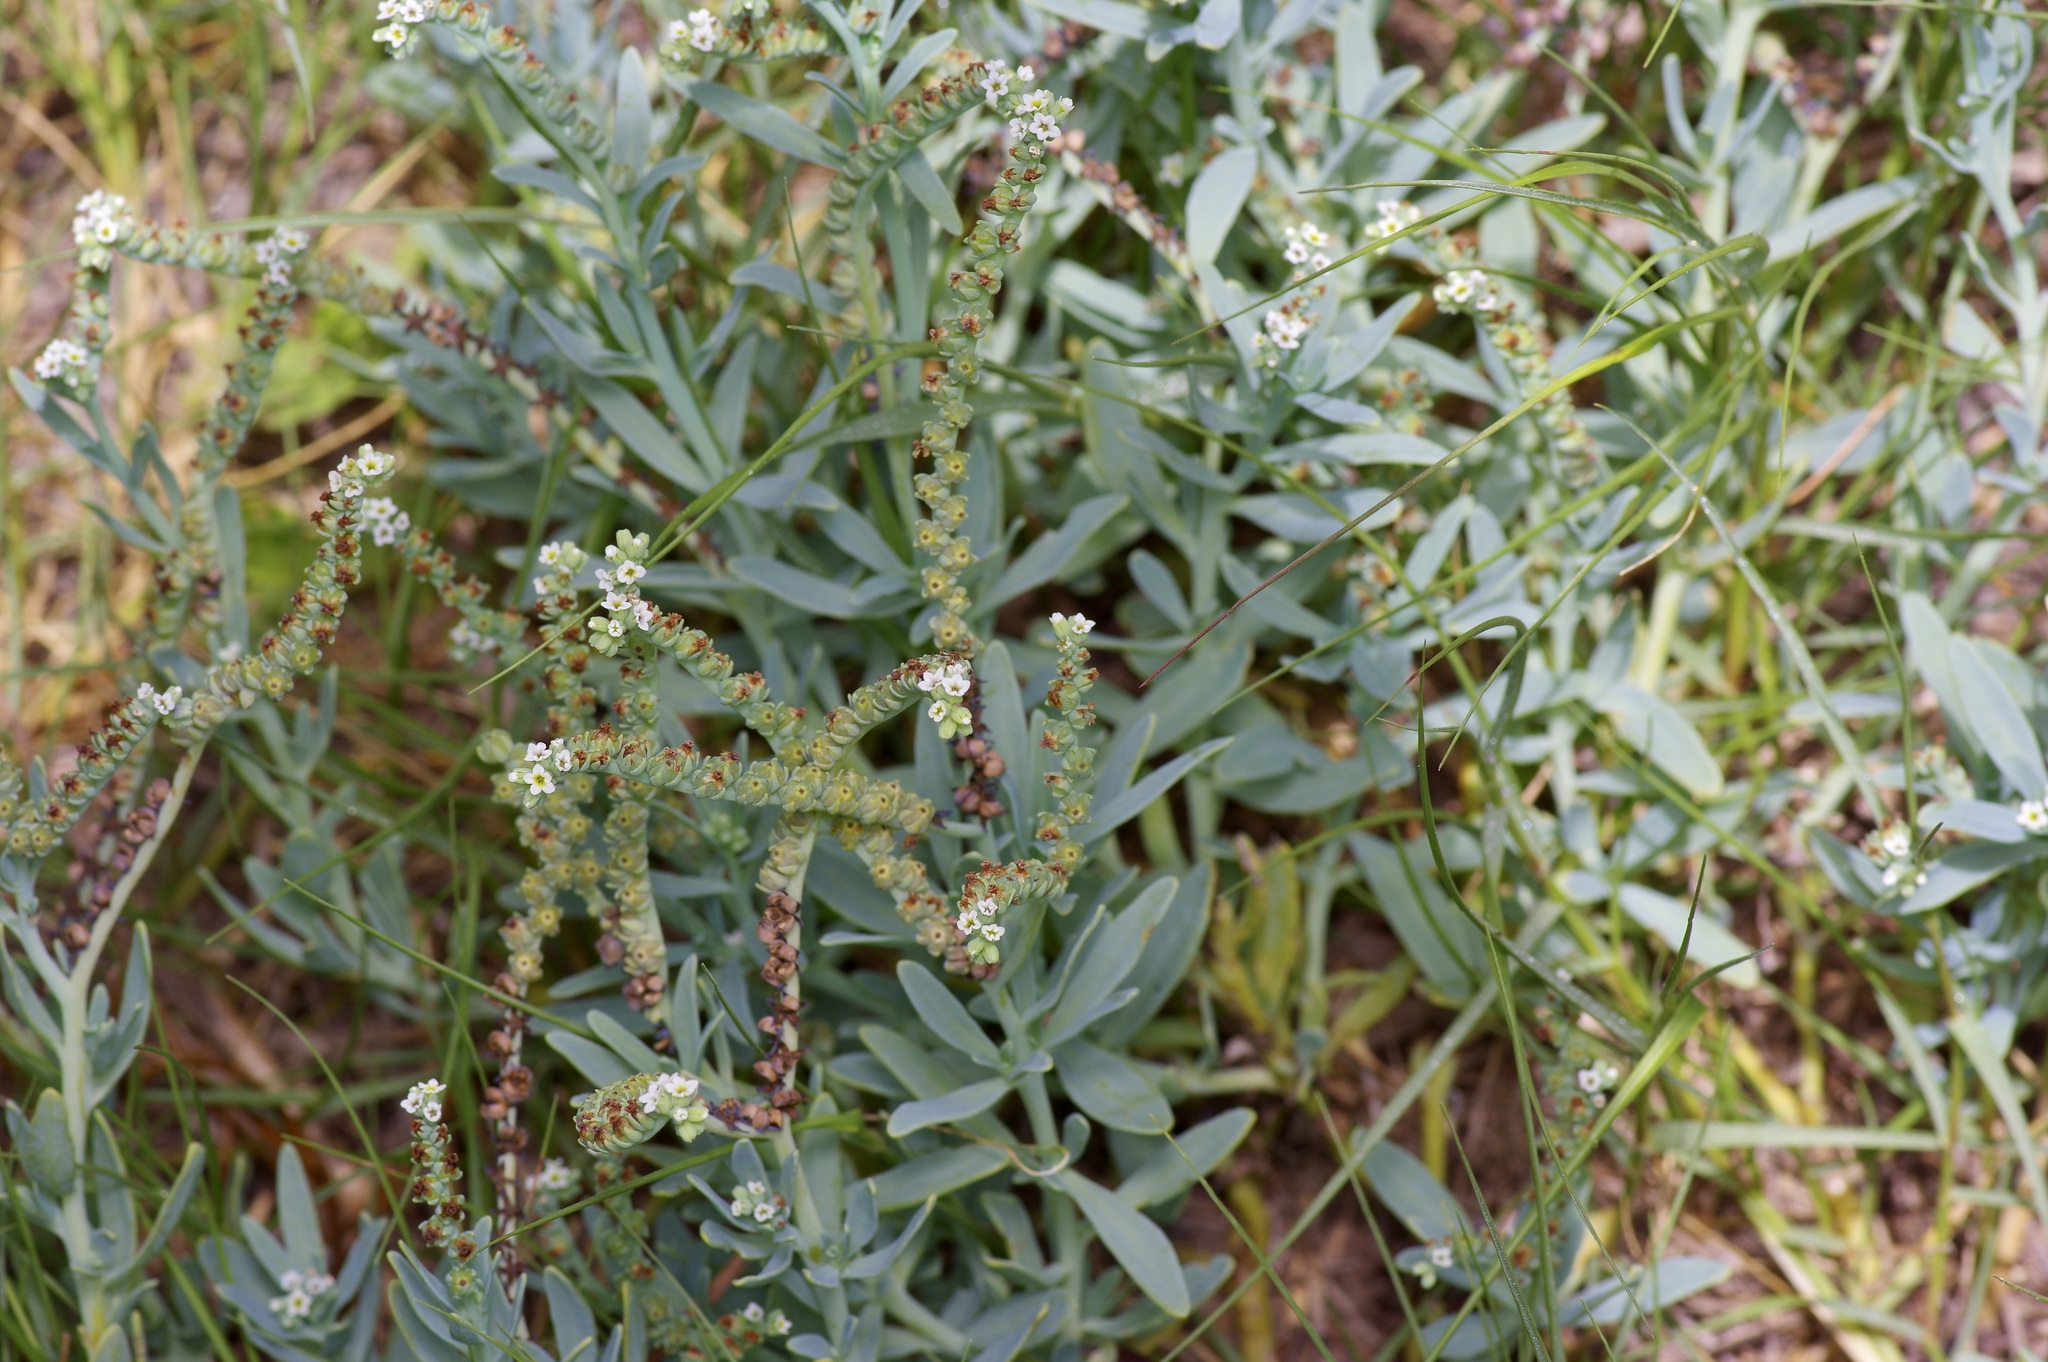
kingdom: Plantae
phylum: Tracheophyta
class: Magnoliopsida
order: Boraginales
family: Heliotropiaceae
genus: Heliotropium
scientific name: Heliotropium curassavicum
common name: Seaside heliotrope
